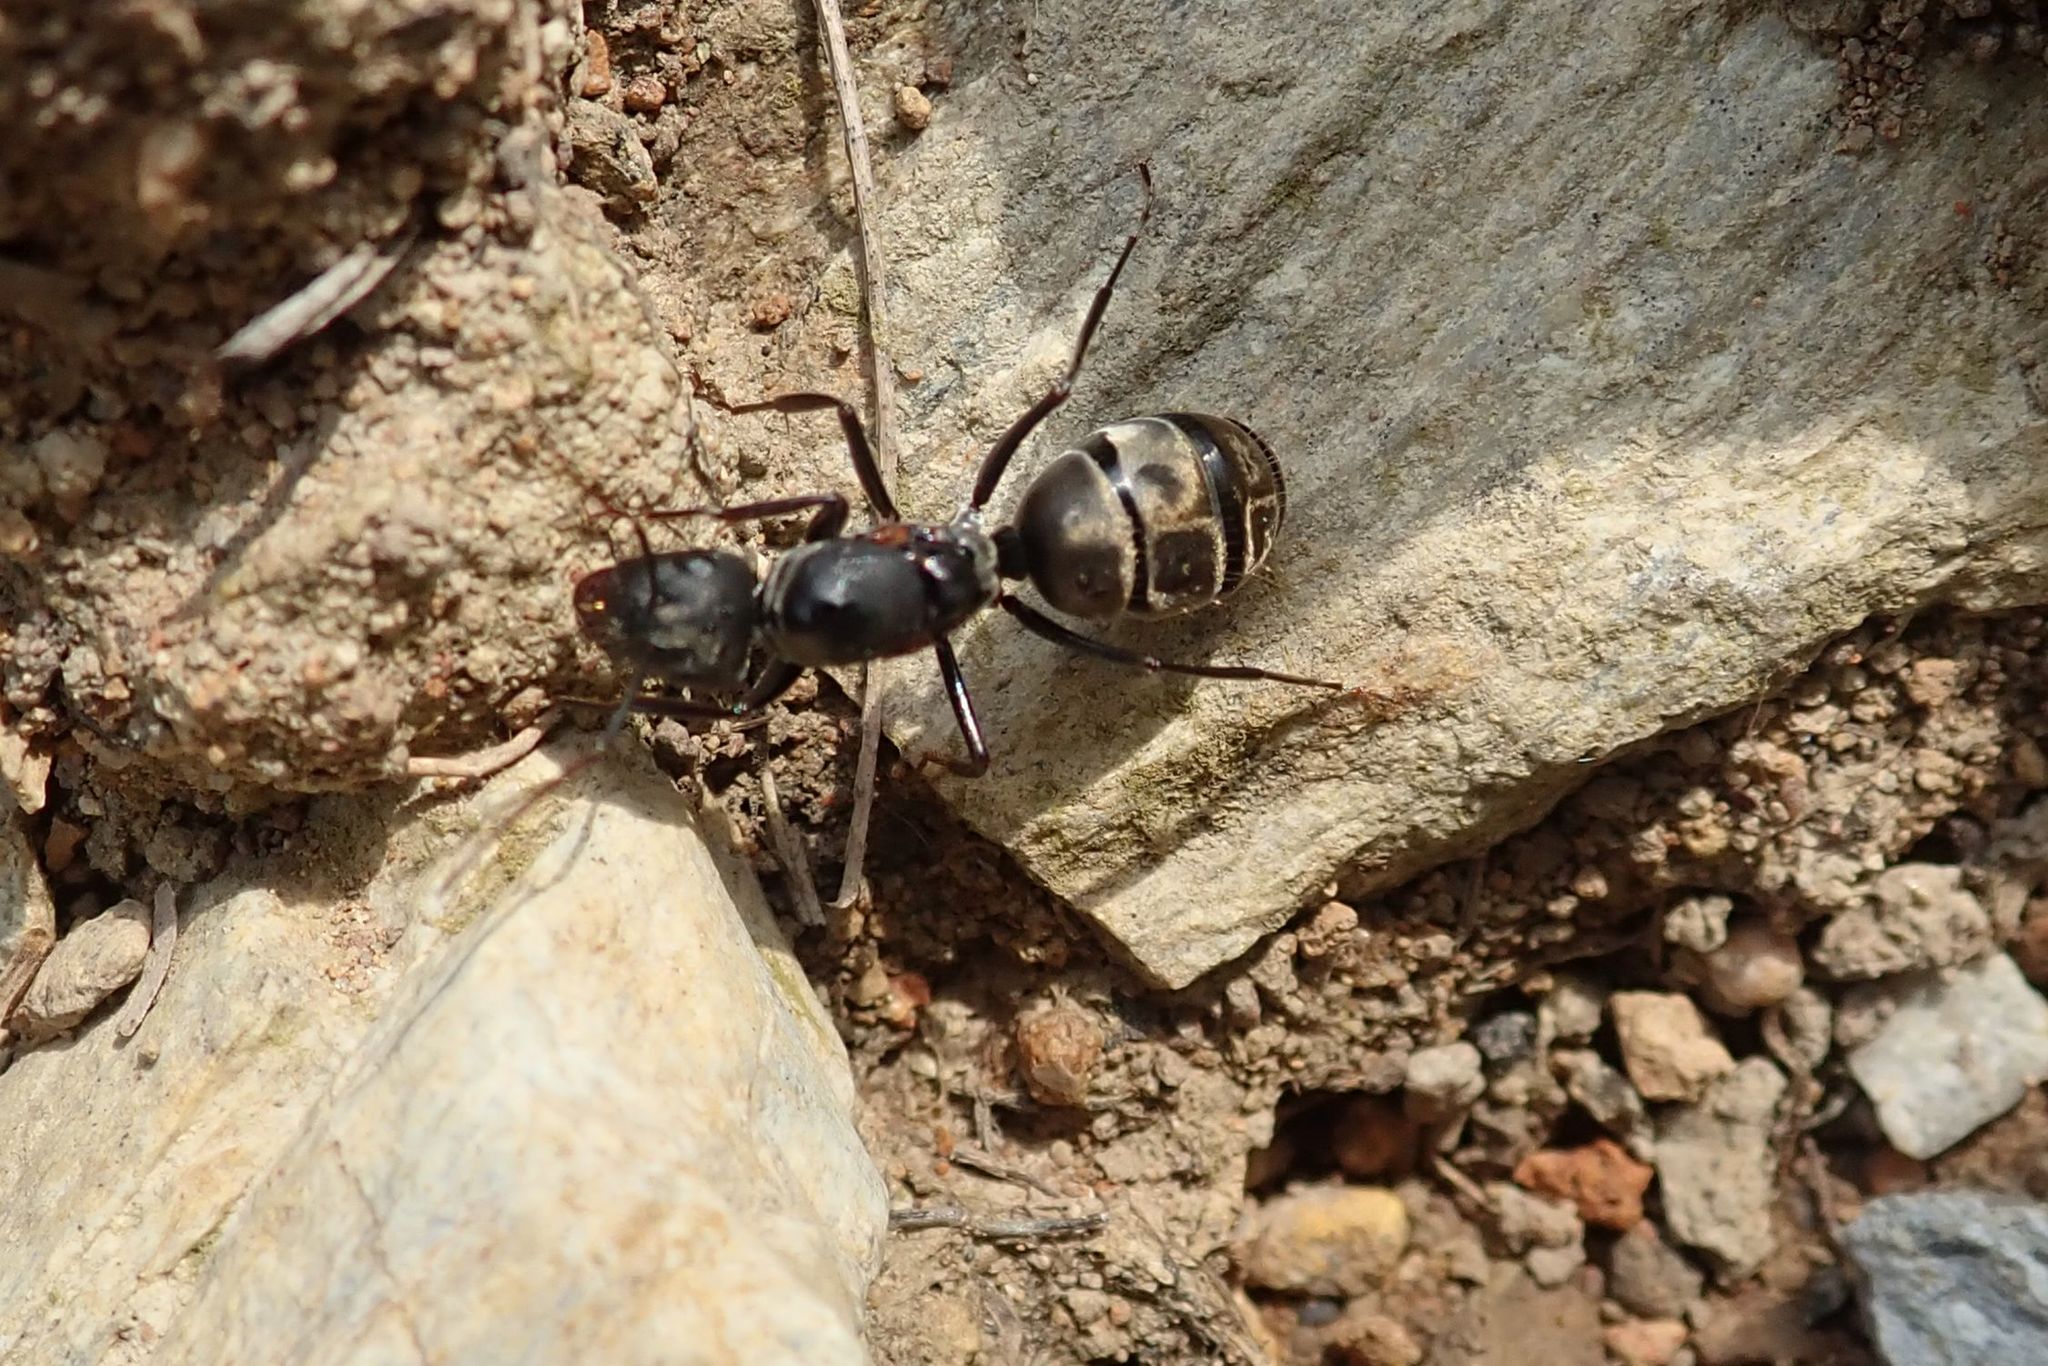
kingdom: Animalia
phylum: Arthropoda
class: Insecta
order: Hymenoptera
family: Formicidae
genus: Camponotus
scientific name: Camponotus cinctellus
